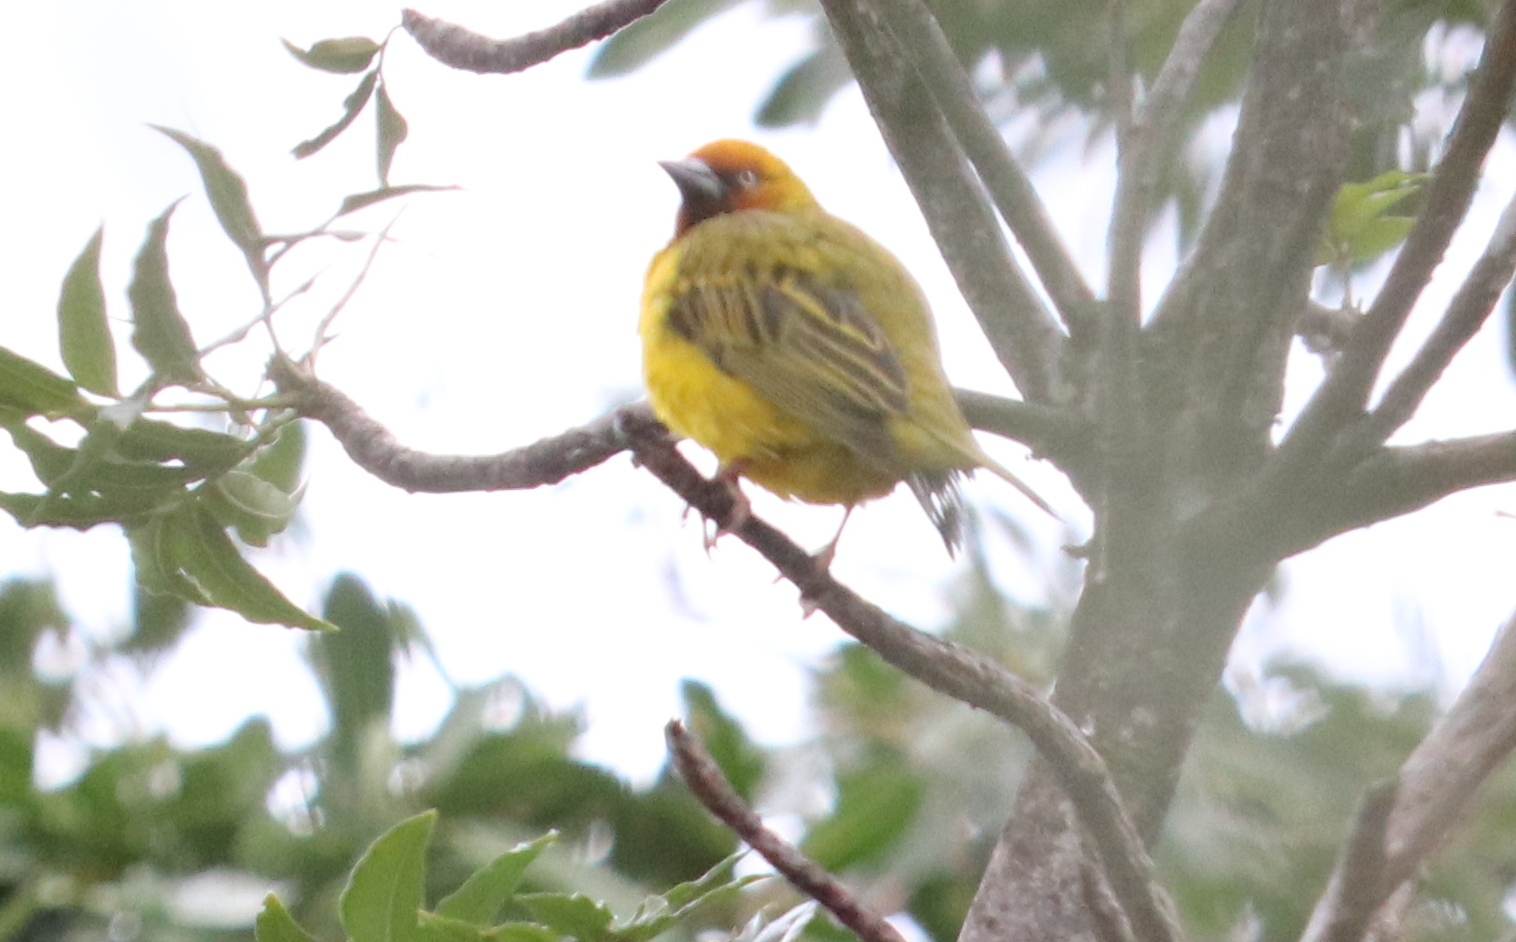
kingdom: Animalia
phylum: Chordata
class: Aves
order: Passeriformes
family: Ploceidae
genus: Ploceus
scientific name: Ploceus capensis
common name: Cape weaver
